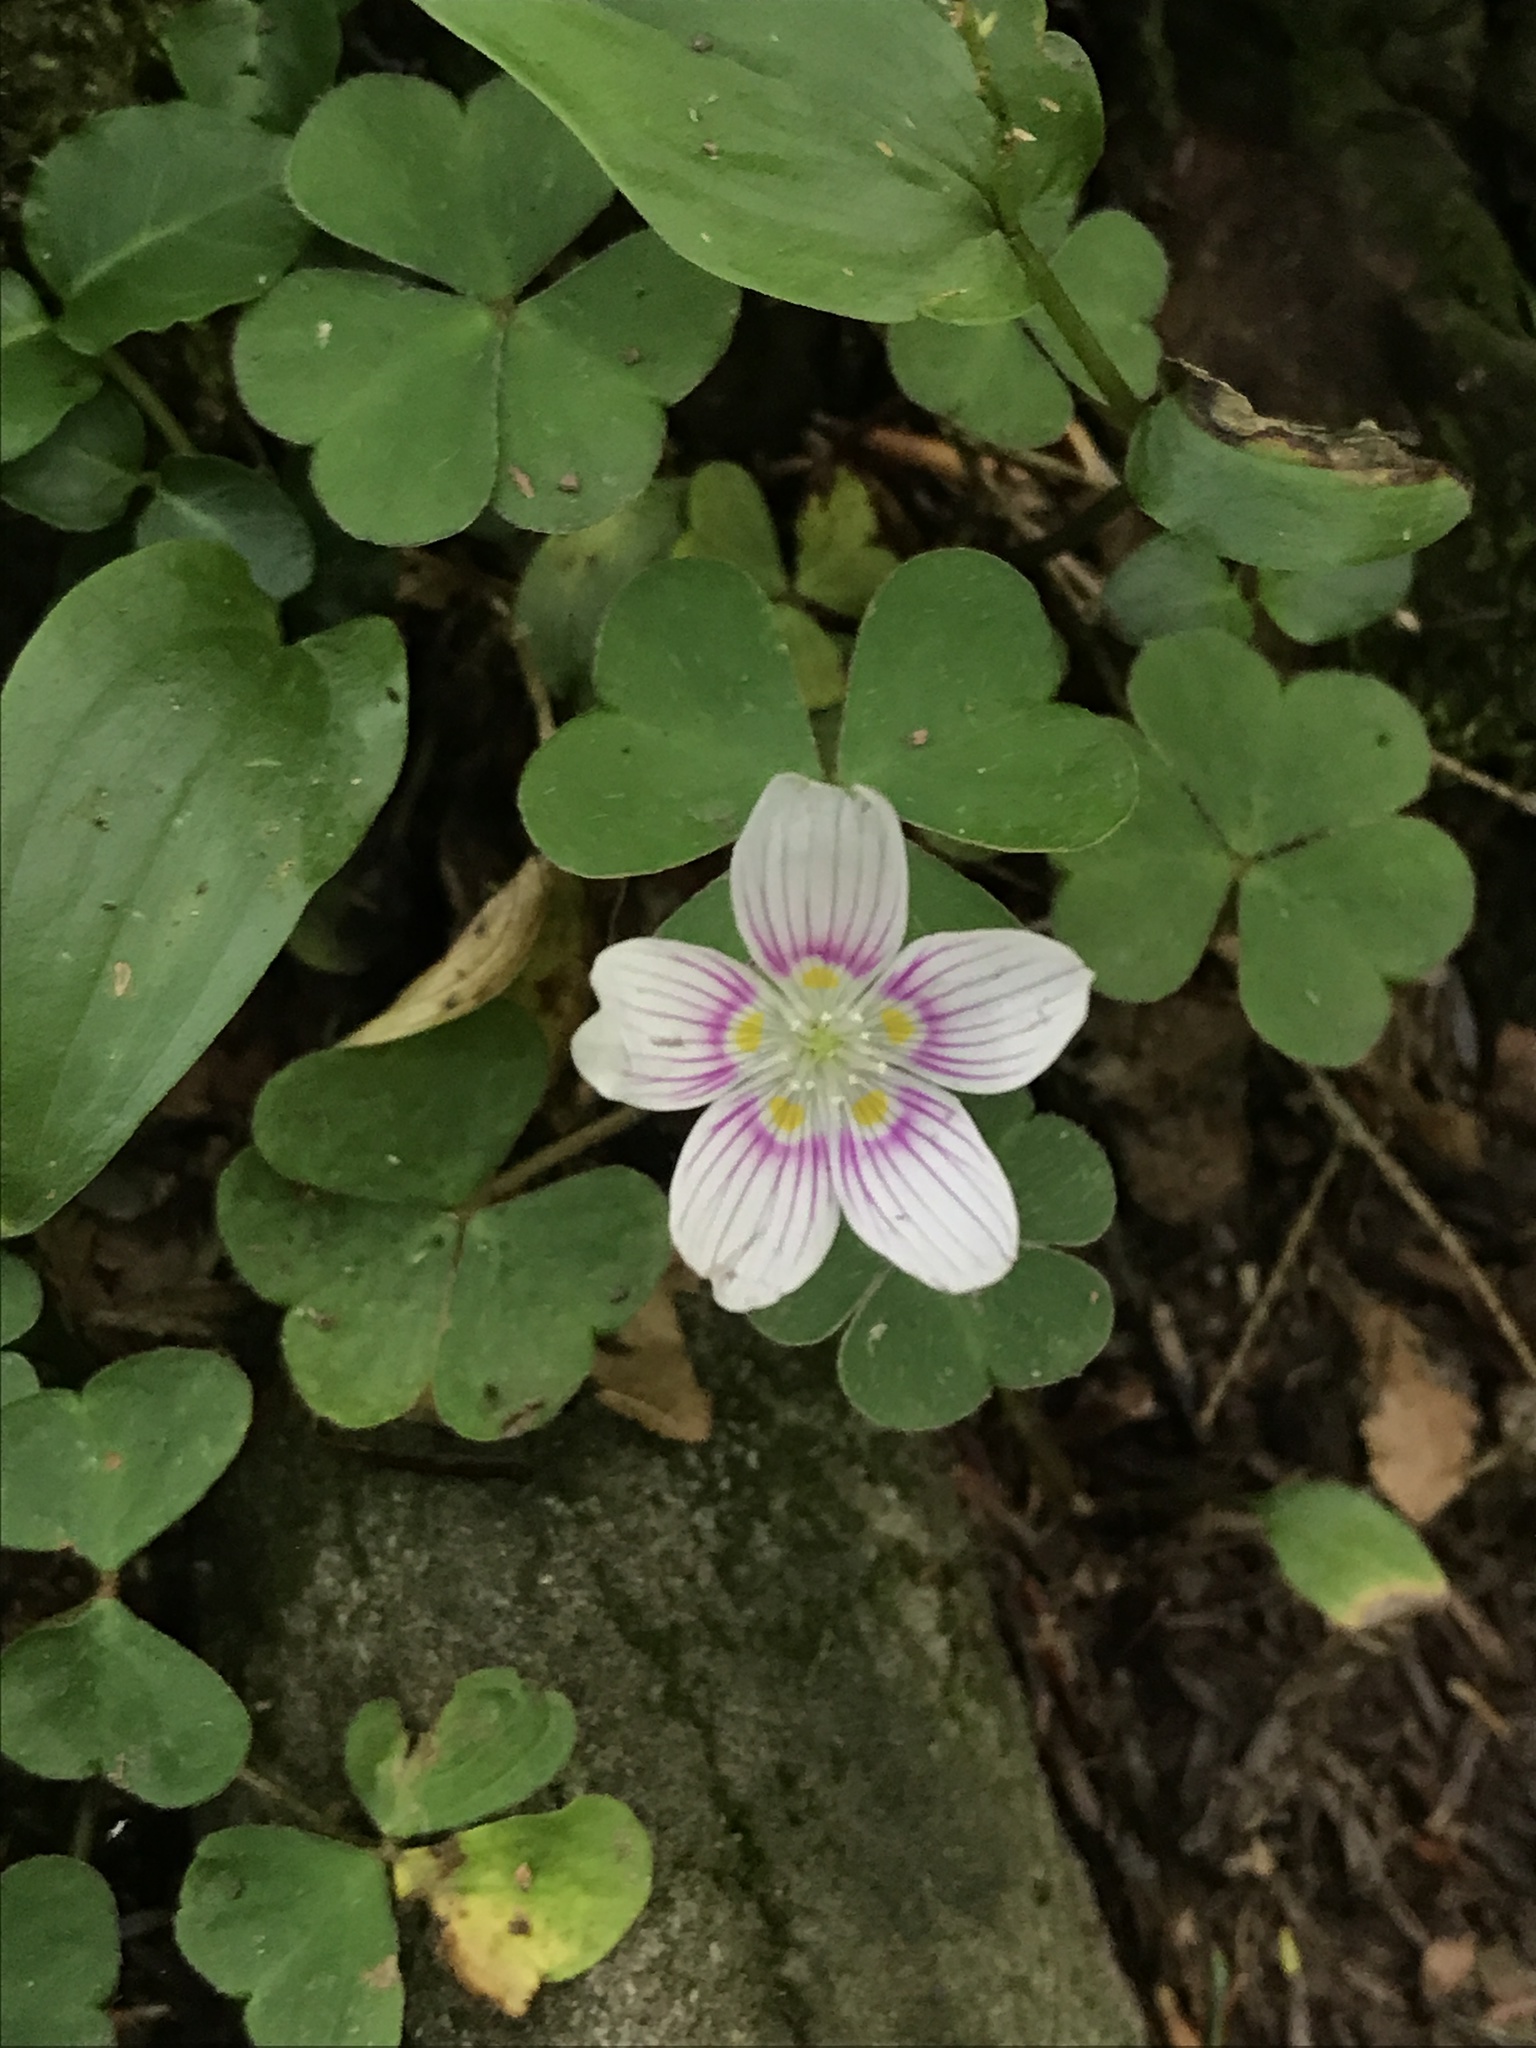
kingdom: Plantae
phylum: Tracheophyta
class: Magnoliopsida
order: Oxalidales
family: Oxalidaceae
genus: Oxalis
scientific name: Oxalis montana
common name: American wood-sorrel
